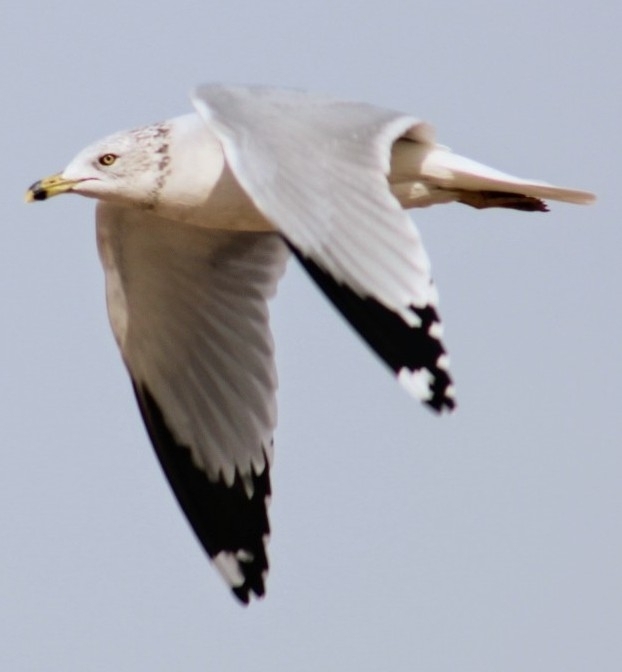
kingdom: Animalia
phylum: Chordata
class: Aves
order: Charadriiformes
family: Laridae
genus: Larus
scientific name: Larus delawarensis
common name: Ring-billed gull
